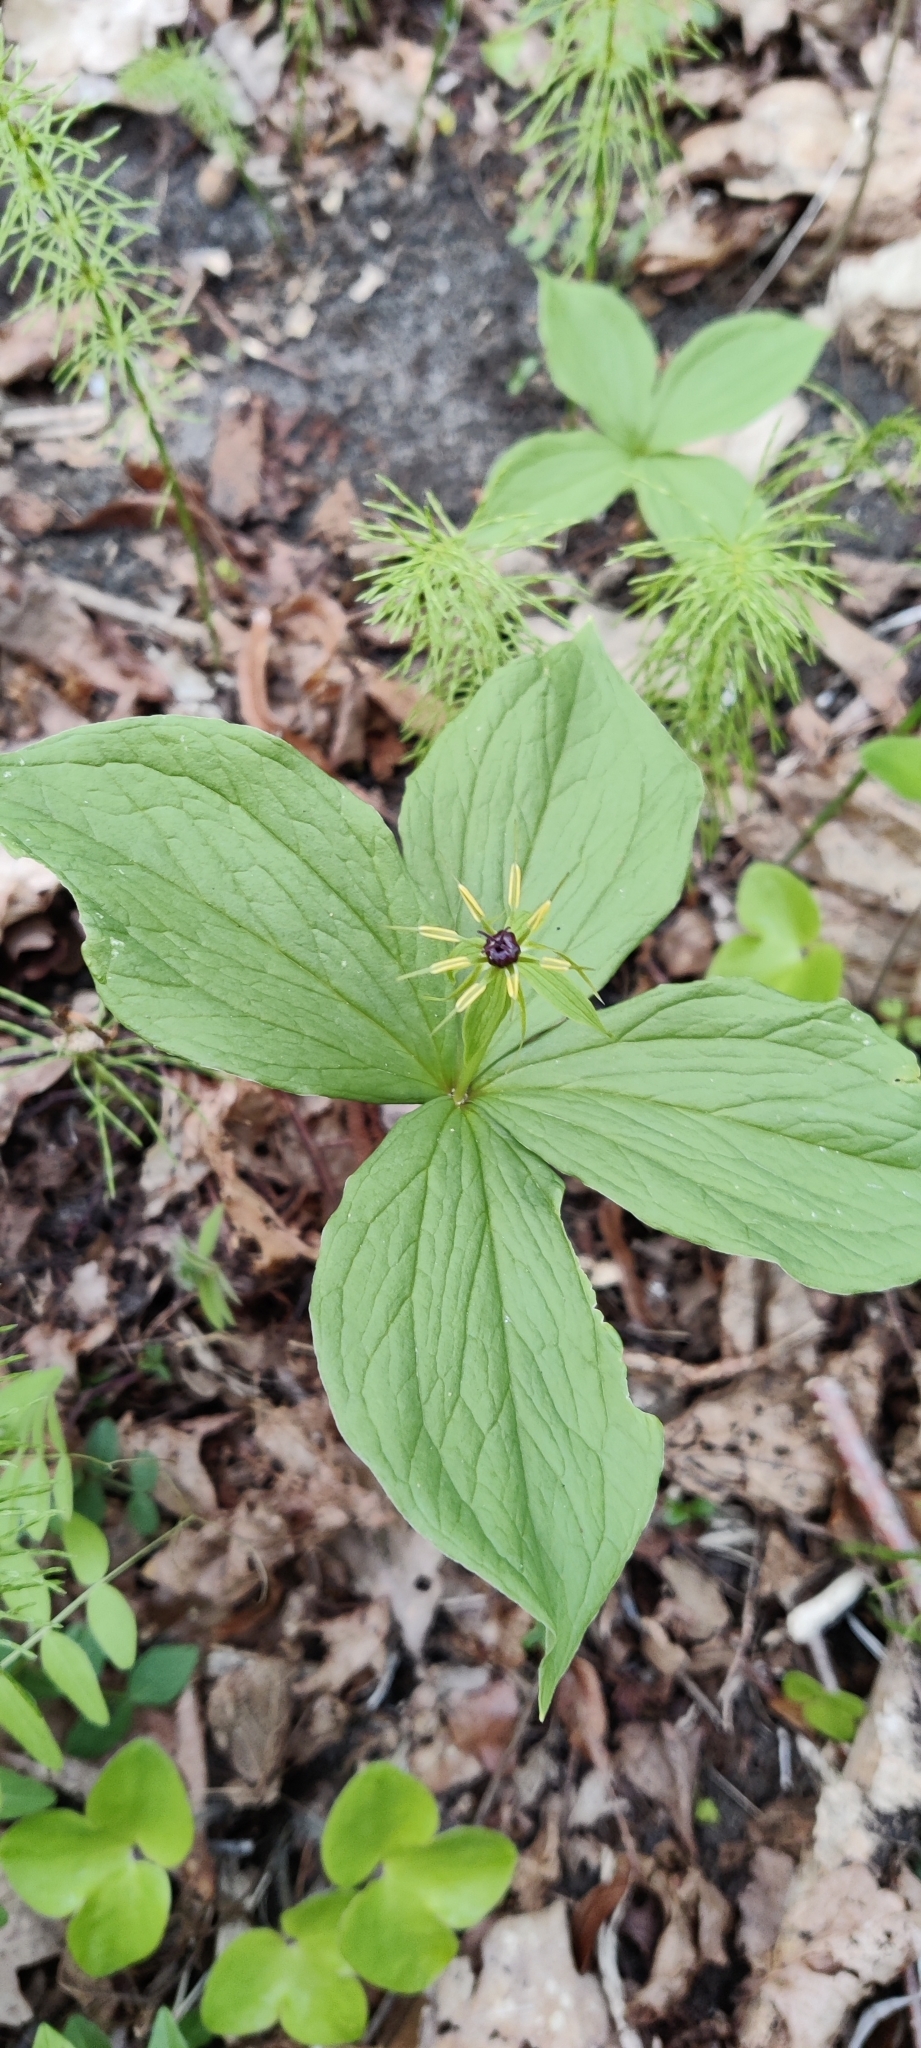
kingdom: Plantae
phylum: Tracheophyta
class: Liliopsida
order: Liliales
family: Melanthiaceae
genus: Paris
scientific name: Paris quadrifolia
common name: Herb-paris
